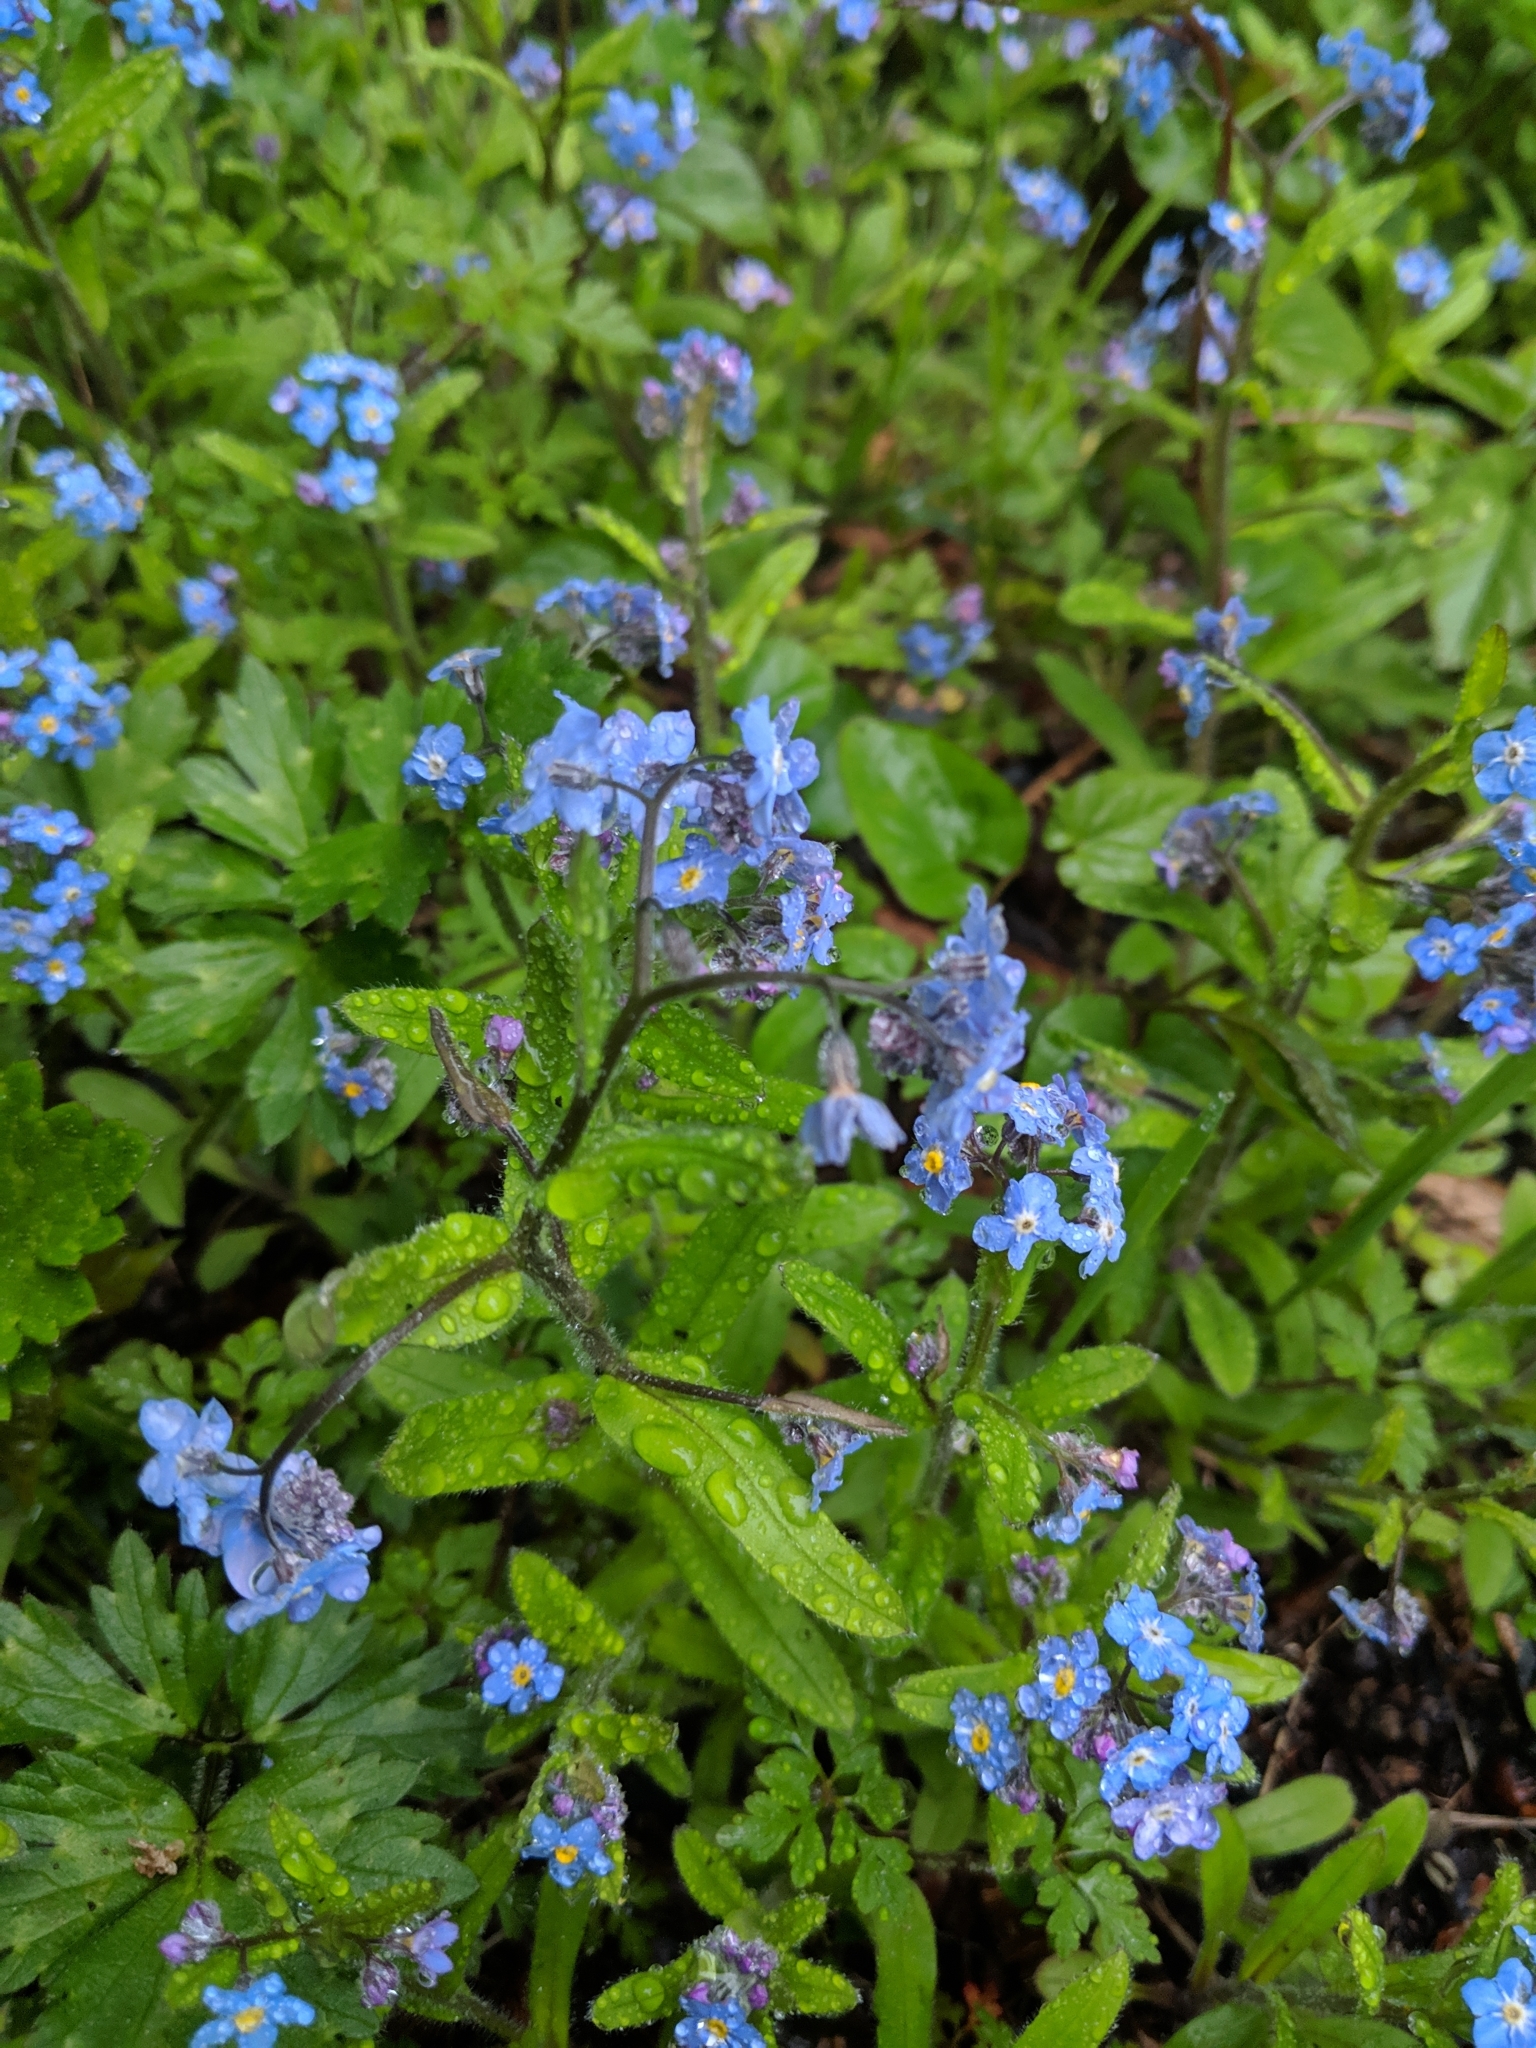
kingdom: Plantae
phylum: Tracheophyta
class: Magnoliopsida
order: Boraginales
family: Boraginaceae
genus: Myosotis
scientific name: Myosotis sylvatica
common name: Wood forget-me-not
